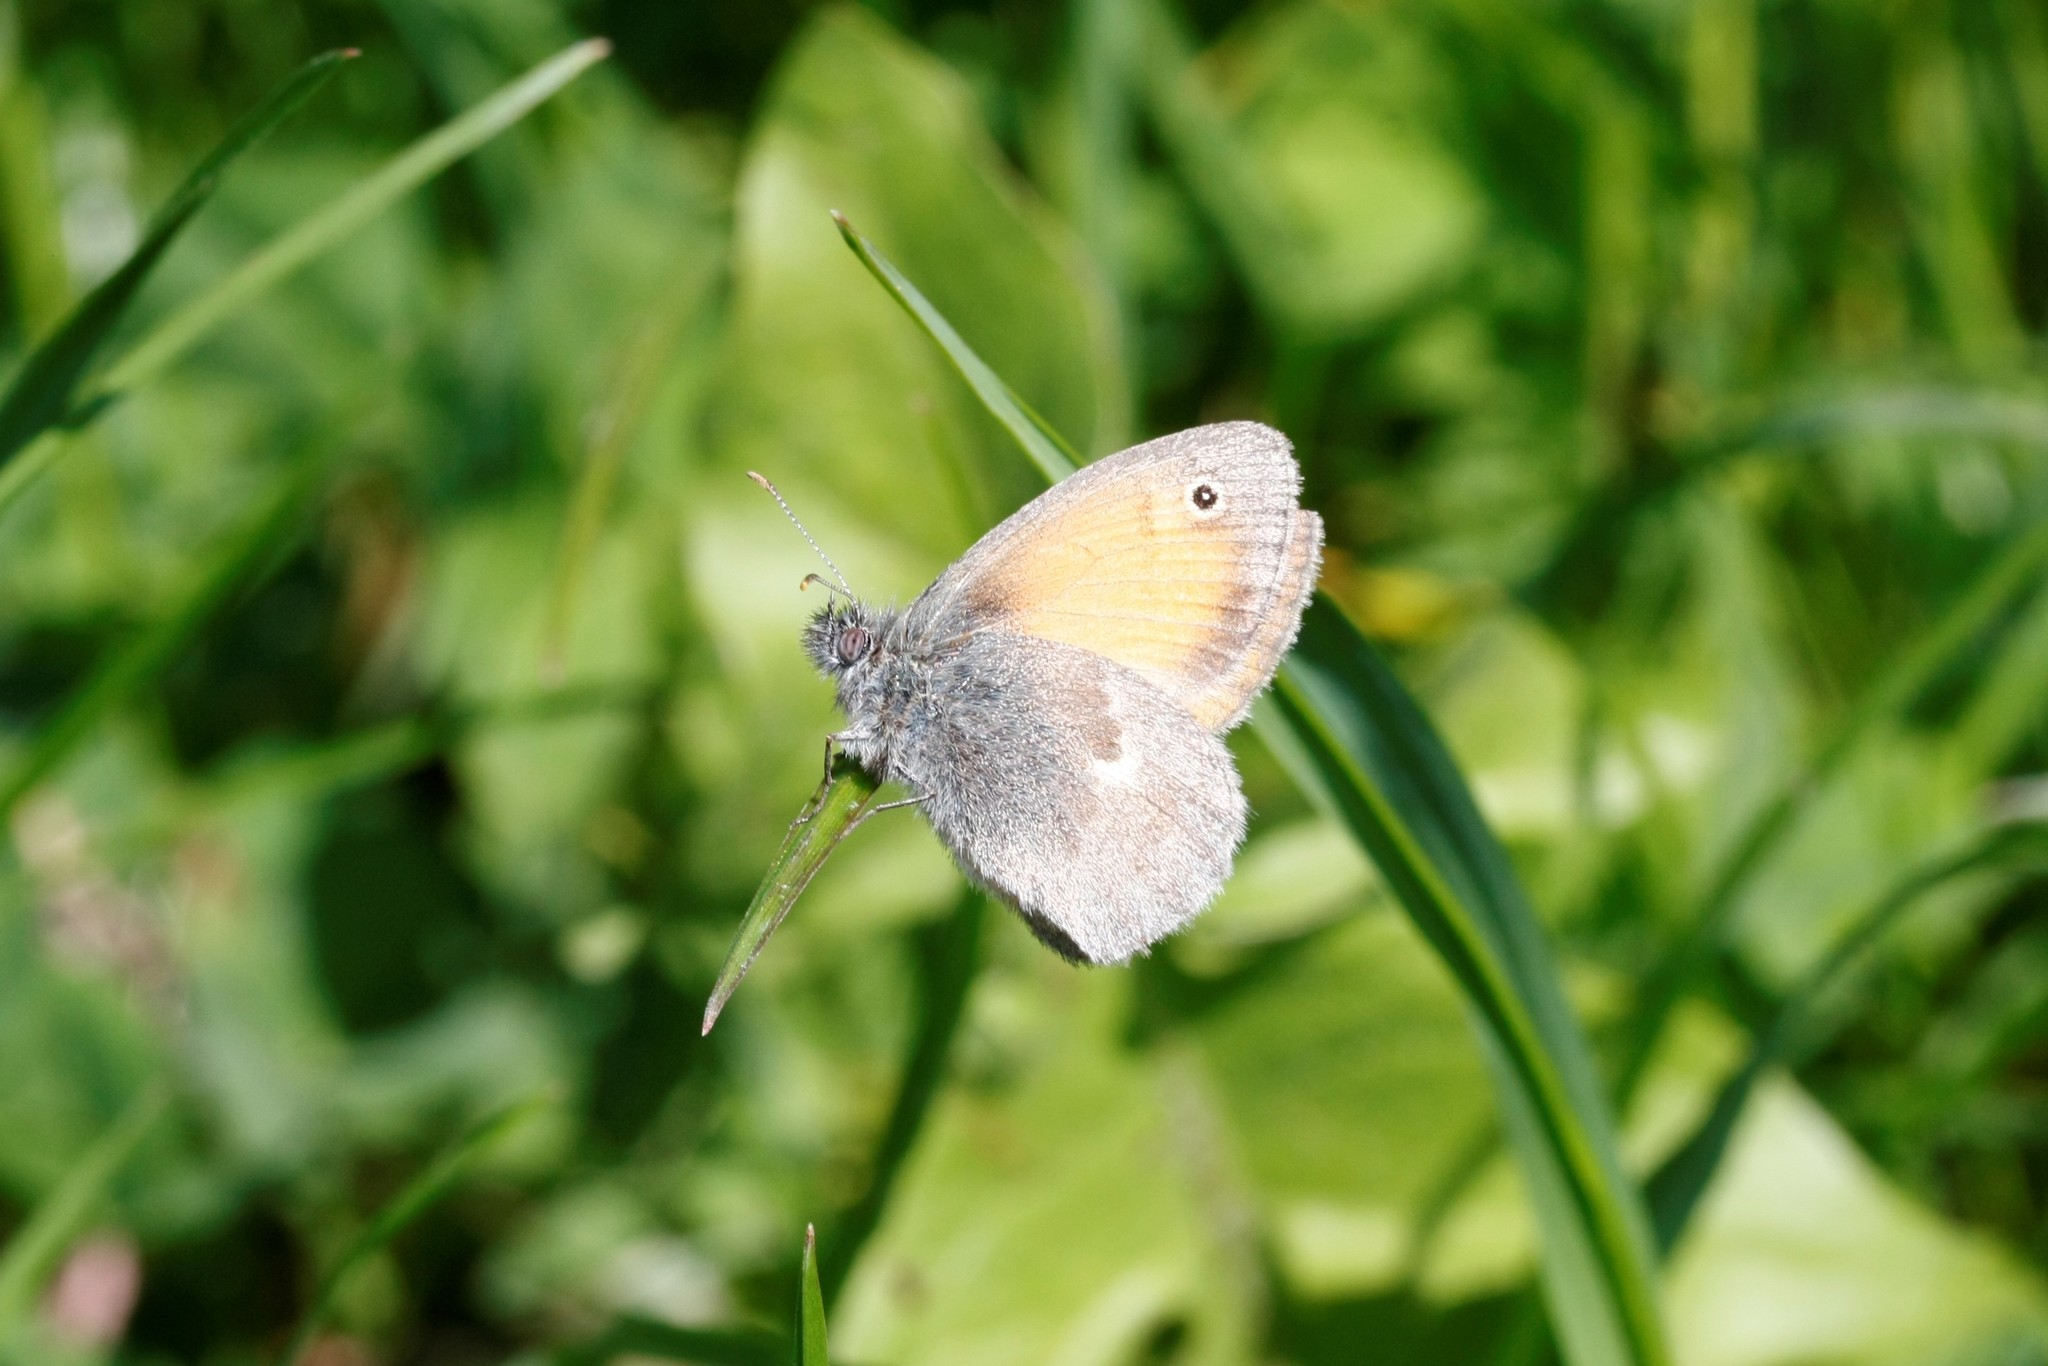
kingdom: Animalia
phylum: Arthropoda
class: Insecta
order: Lepidoptera
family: Nymphalidae
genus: Coenonympha
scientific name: Coenonympha pamphilus
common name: Small heath
